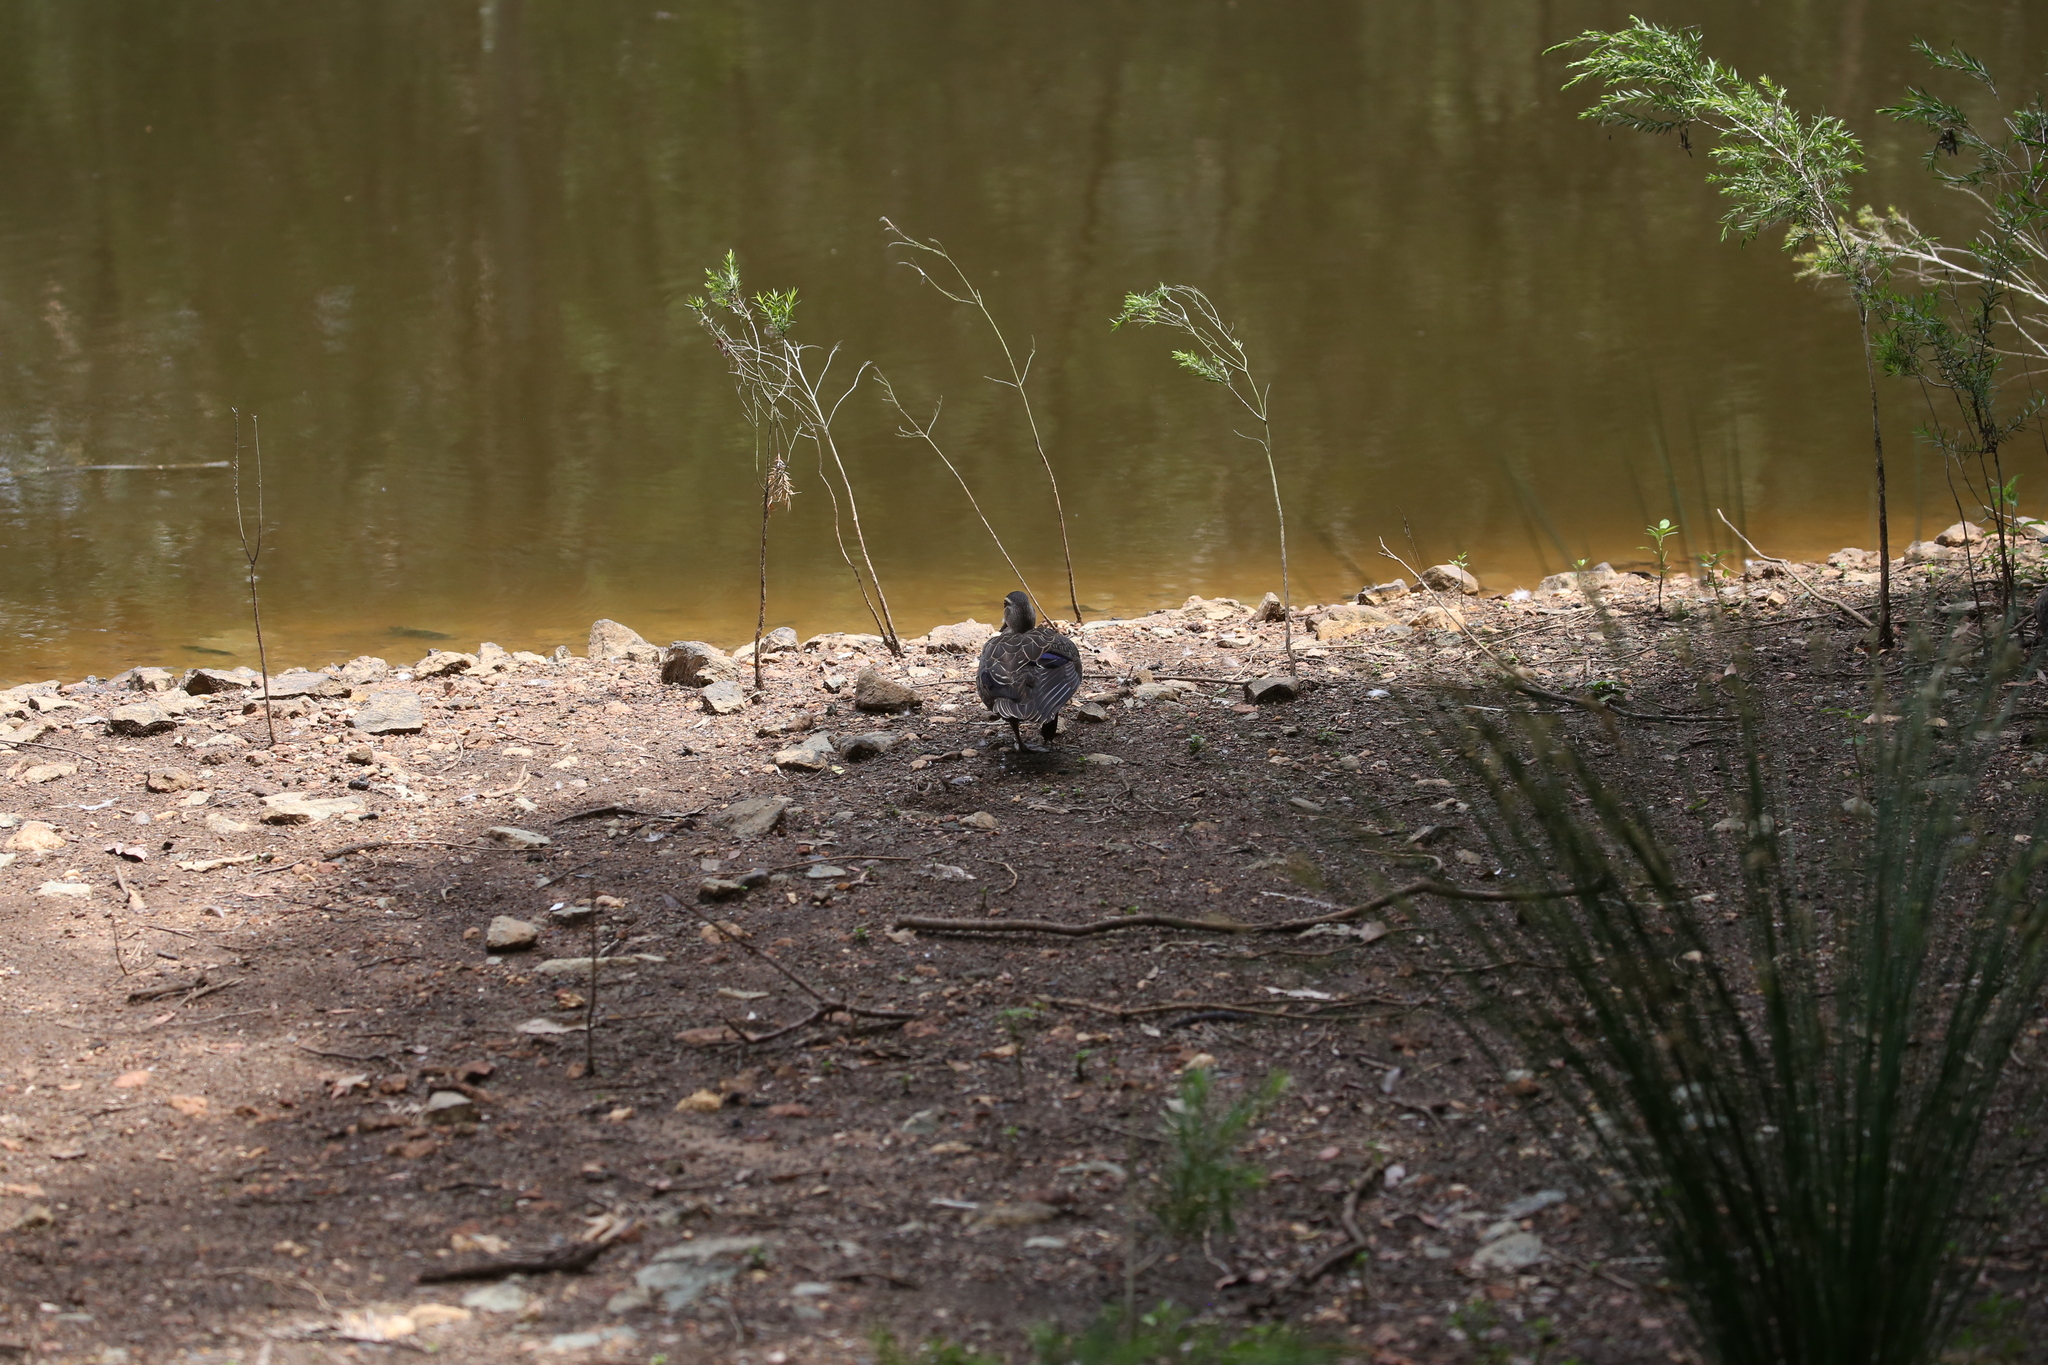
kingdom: Animalia
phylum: Chordata
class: Aves
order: Anseriformes
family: Anatidae
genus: Anas
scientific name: Anas superciliosa
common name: Pacific black duck
